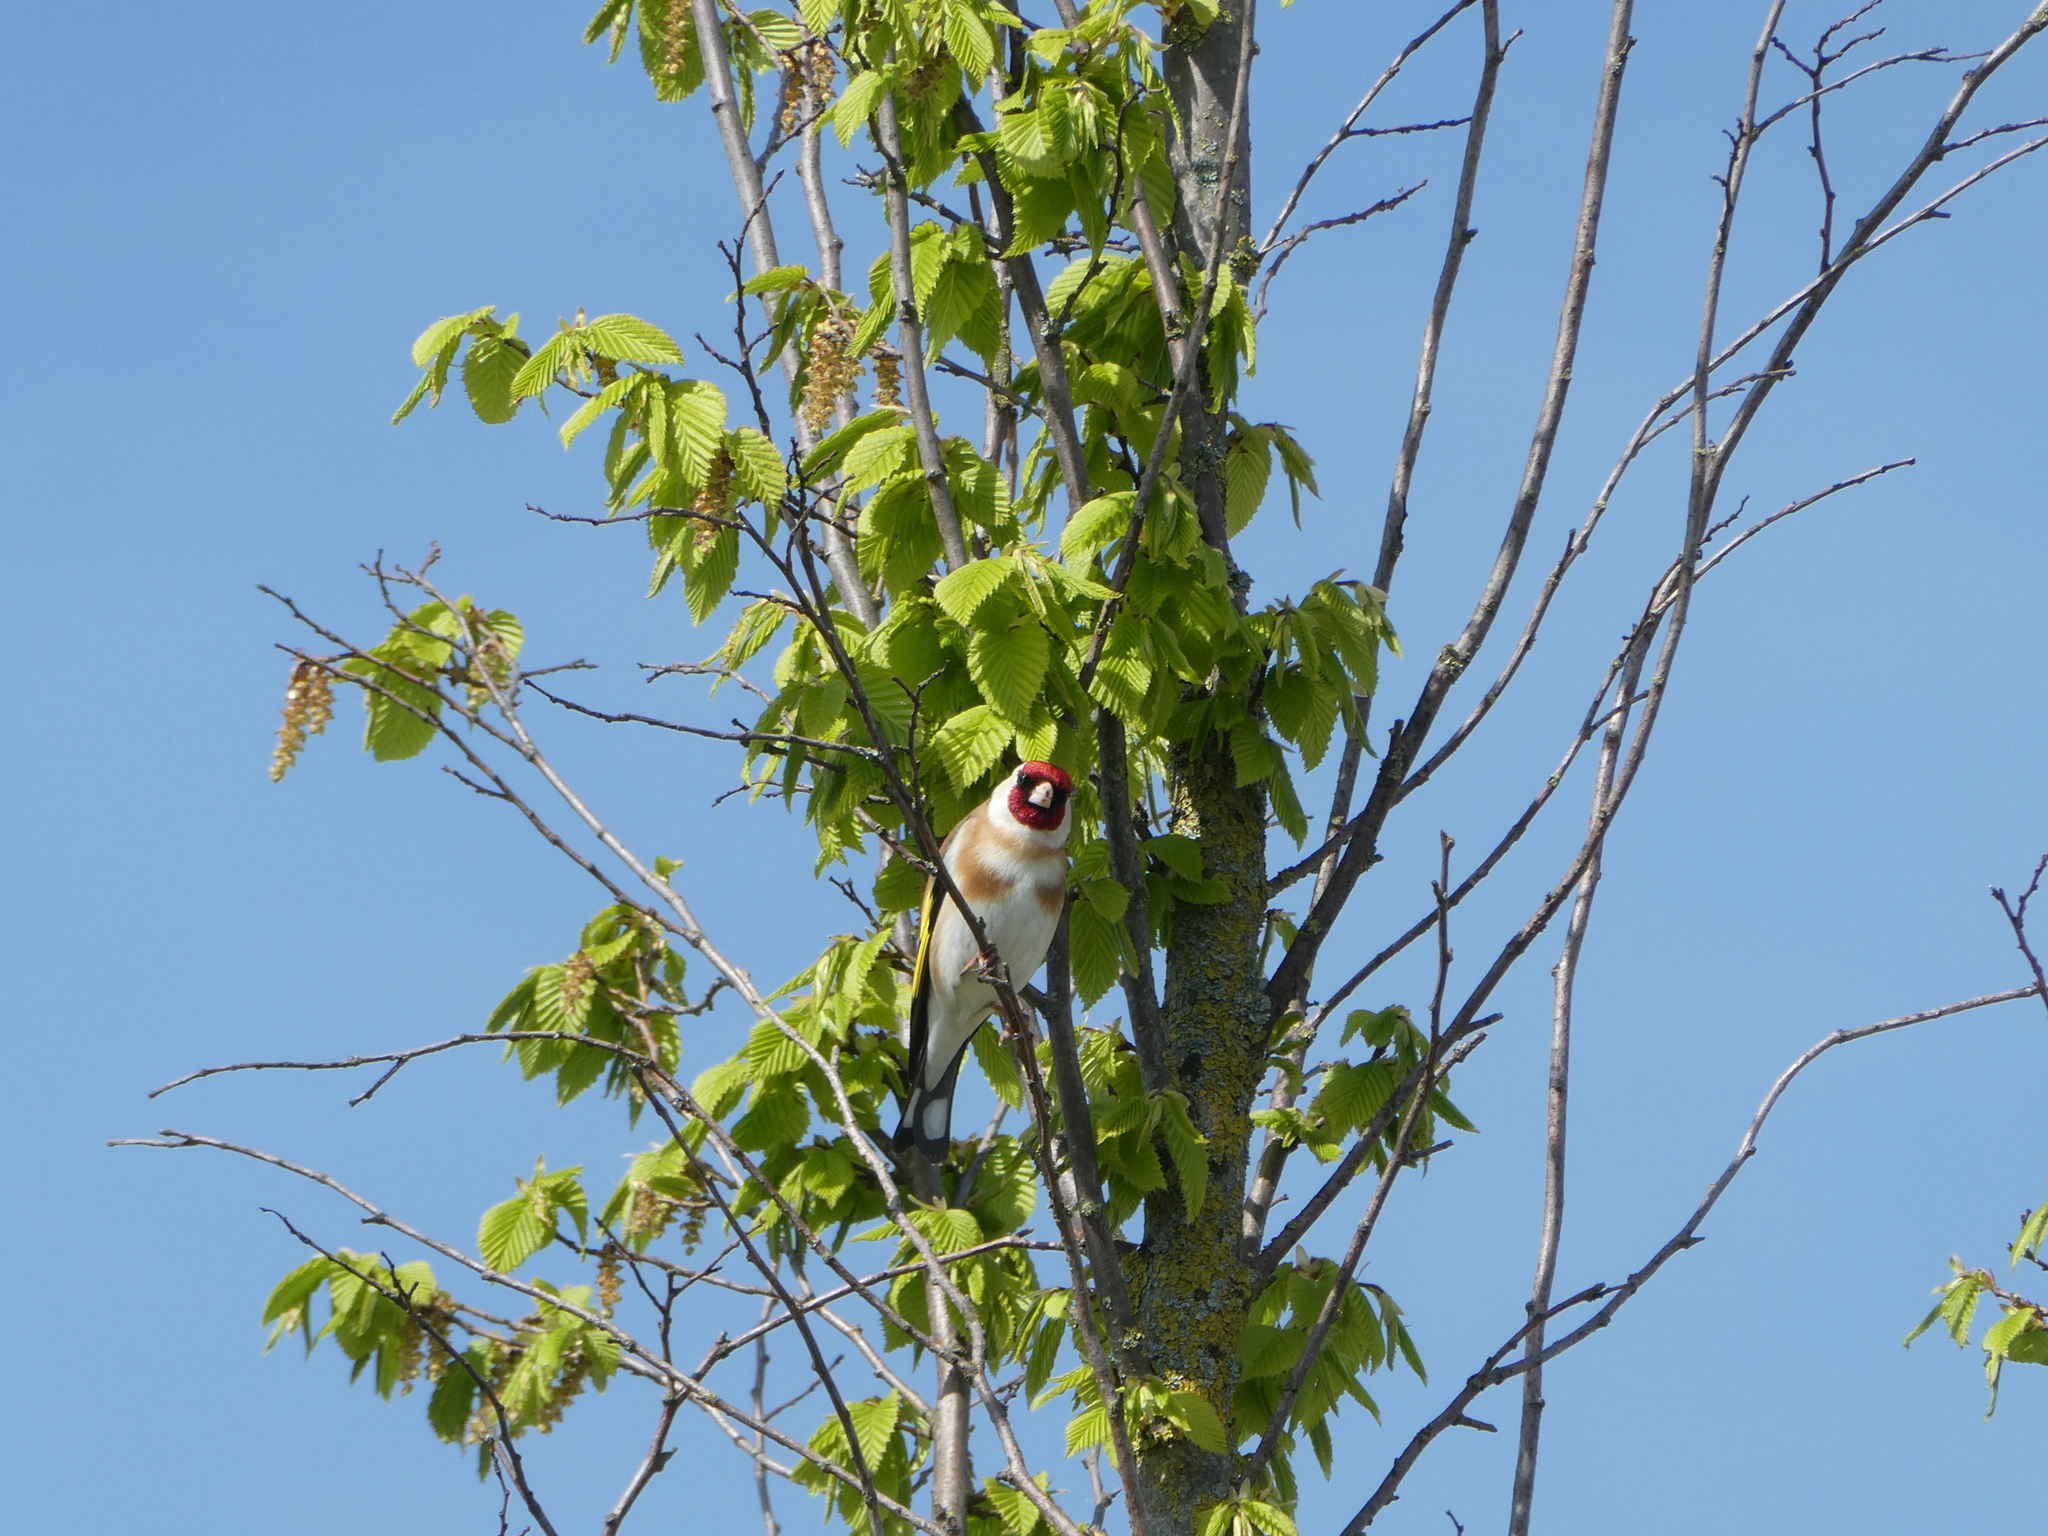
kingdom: Animalia
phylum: Chordata
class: Aves
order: Passeriformes
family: Fringillidae
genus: Carduelis
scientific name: Carduelis carduelis
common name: European goldfinch
